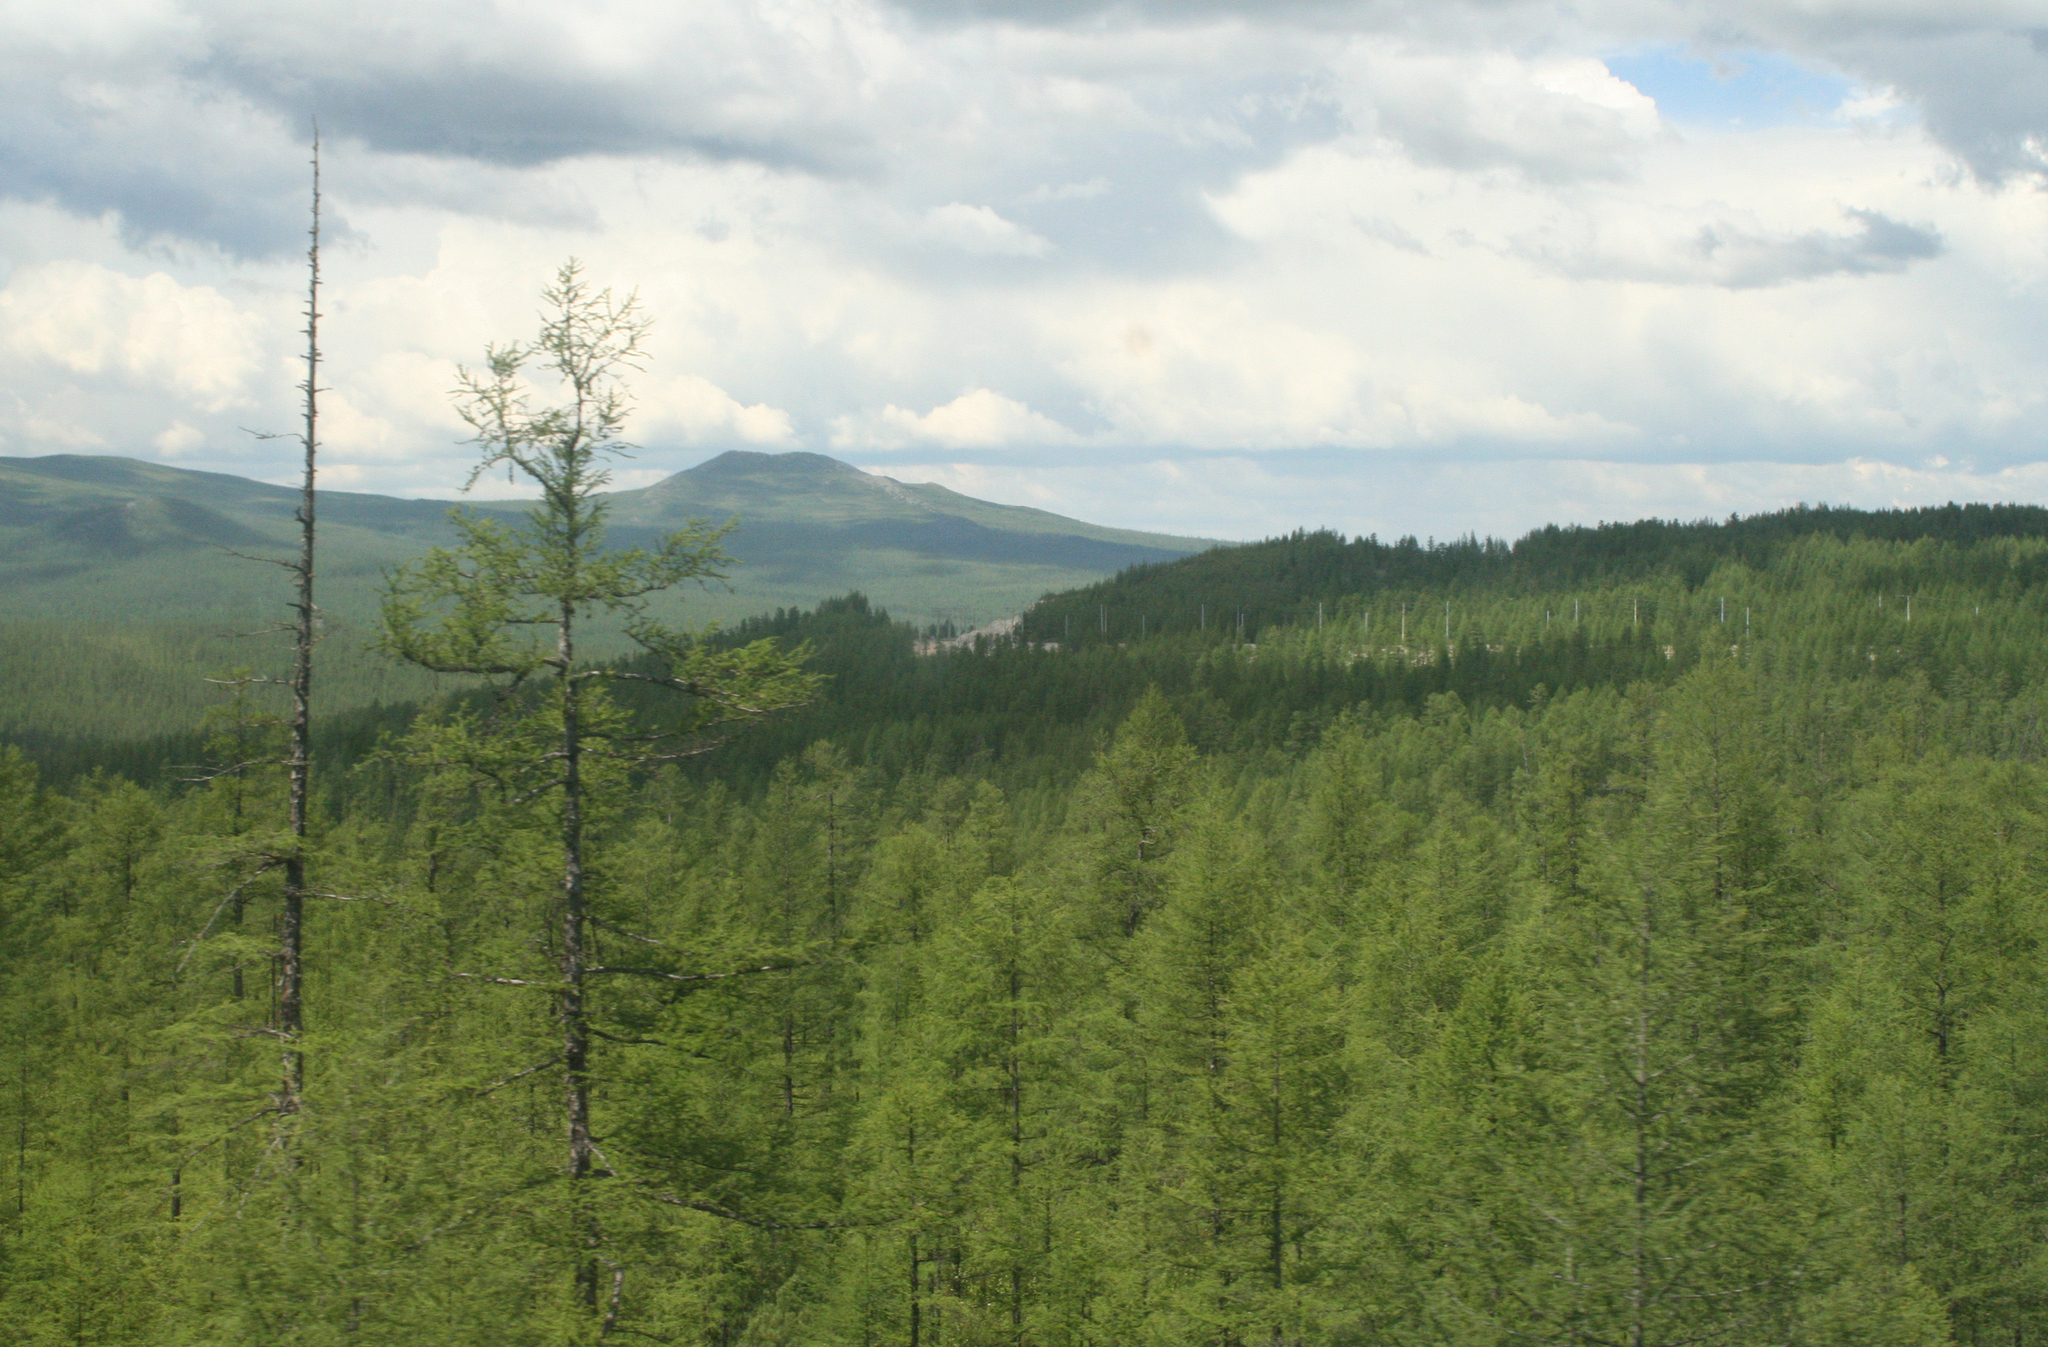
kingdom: Plantae
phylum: Tracheophyta
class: Pinopsida
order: Pinales
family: Pinaceae
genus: Larix
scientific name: Larix gmelinii
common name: Dahurian larch
